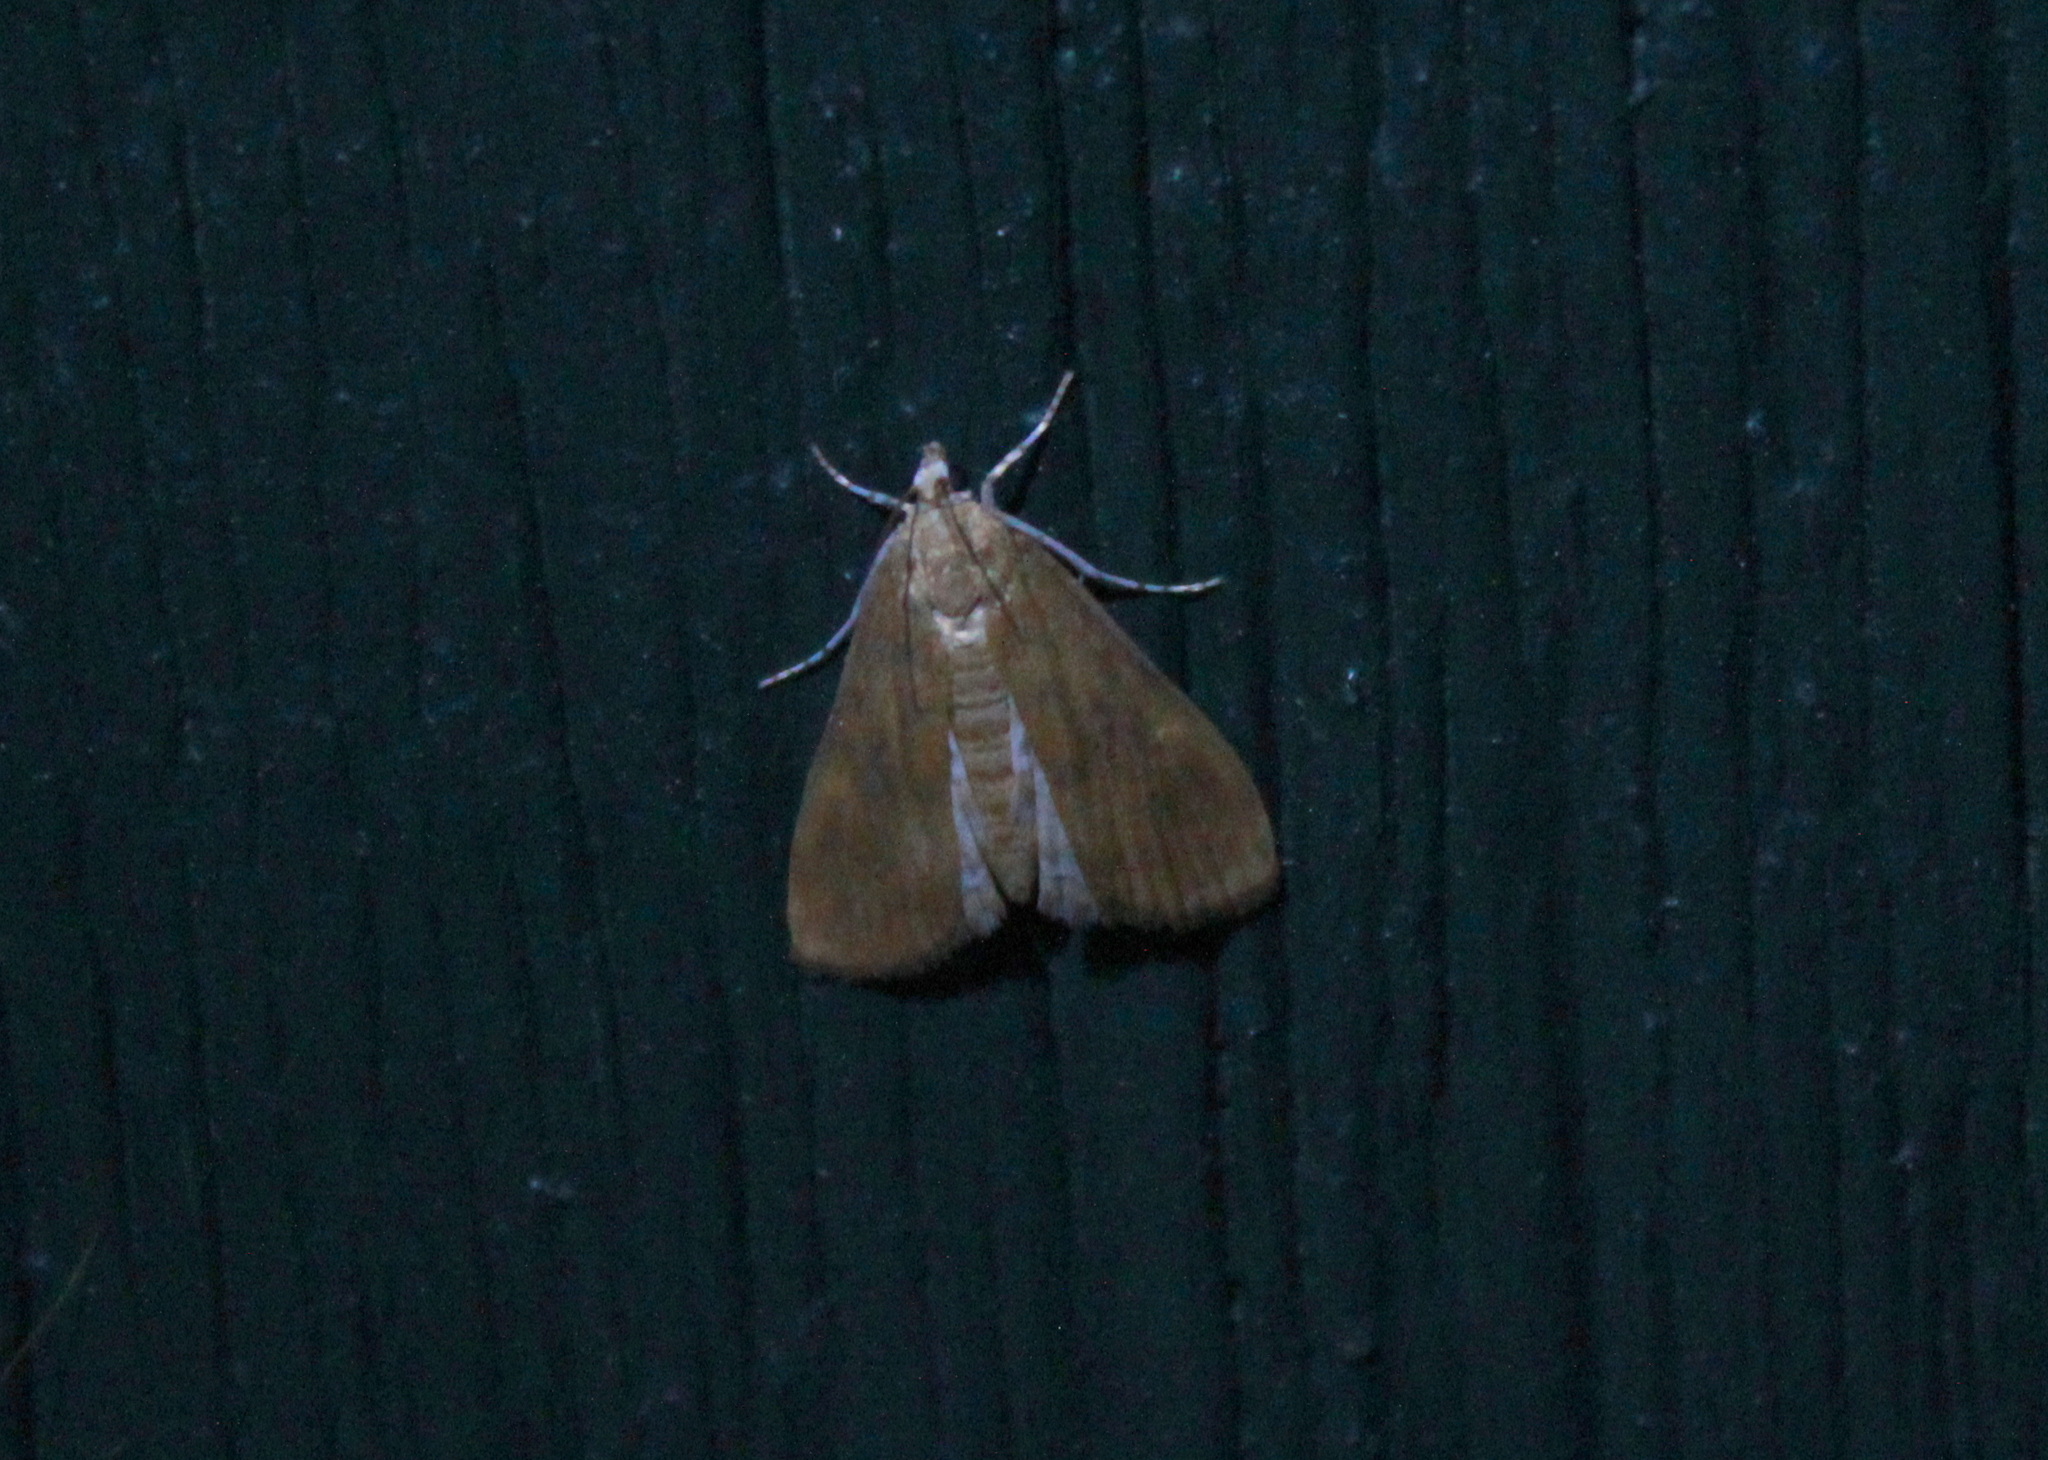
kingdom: Animalia
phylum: Arthropoda
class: Insecta
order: Lepidoptera
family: Crambidae
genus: Elophila
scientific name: Elophila gyralis
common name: Waterlily borer moth
